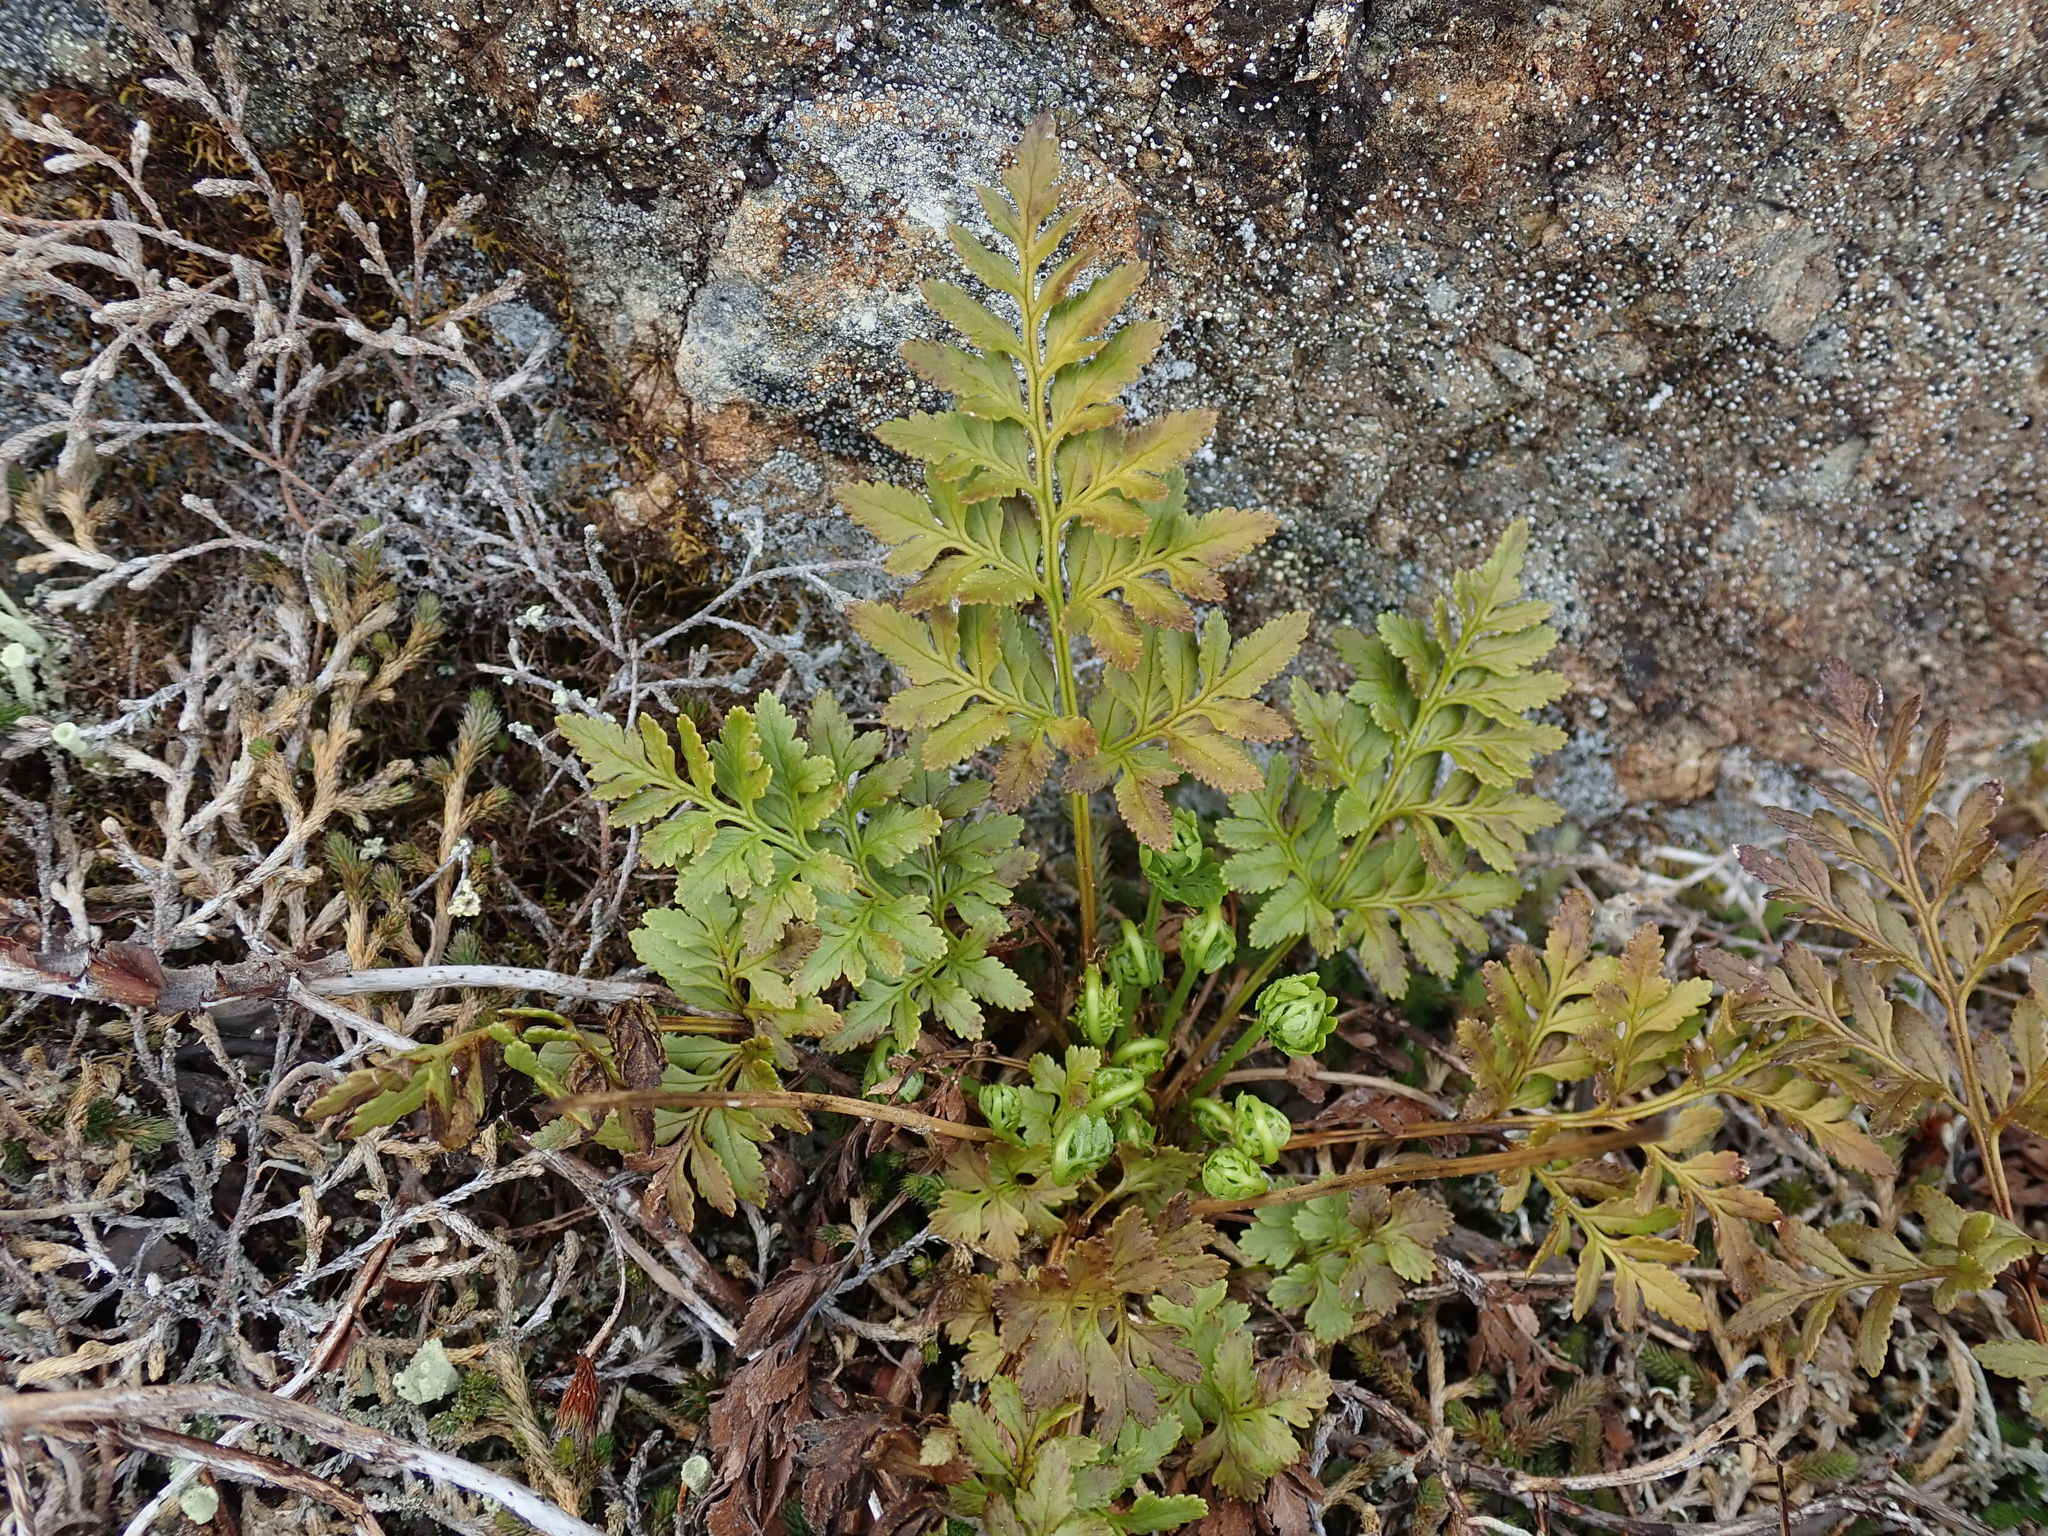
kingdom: Plantae
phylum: Tracheophyta
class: Polypodiopsida
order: Polypodiales
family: Pteridaceae
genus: Cryptogramma
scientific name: Cryptogramma acrostichoides
